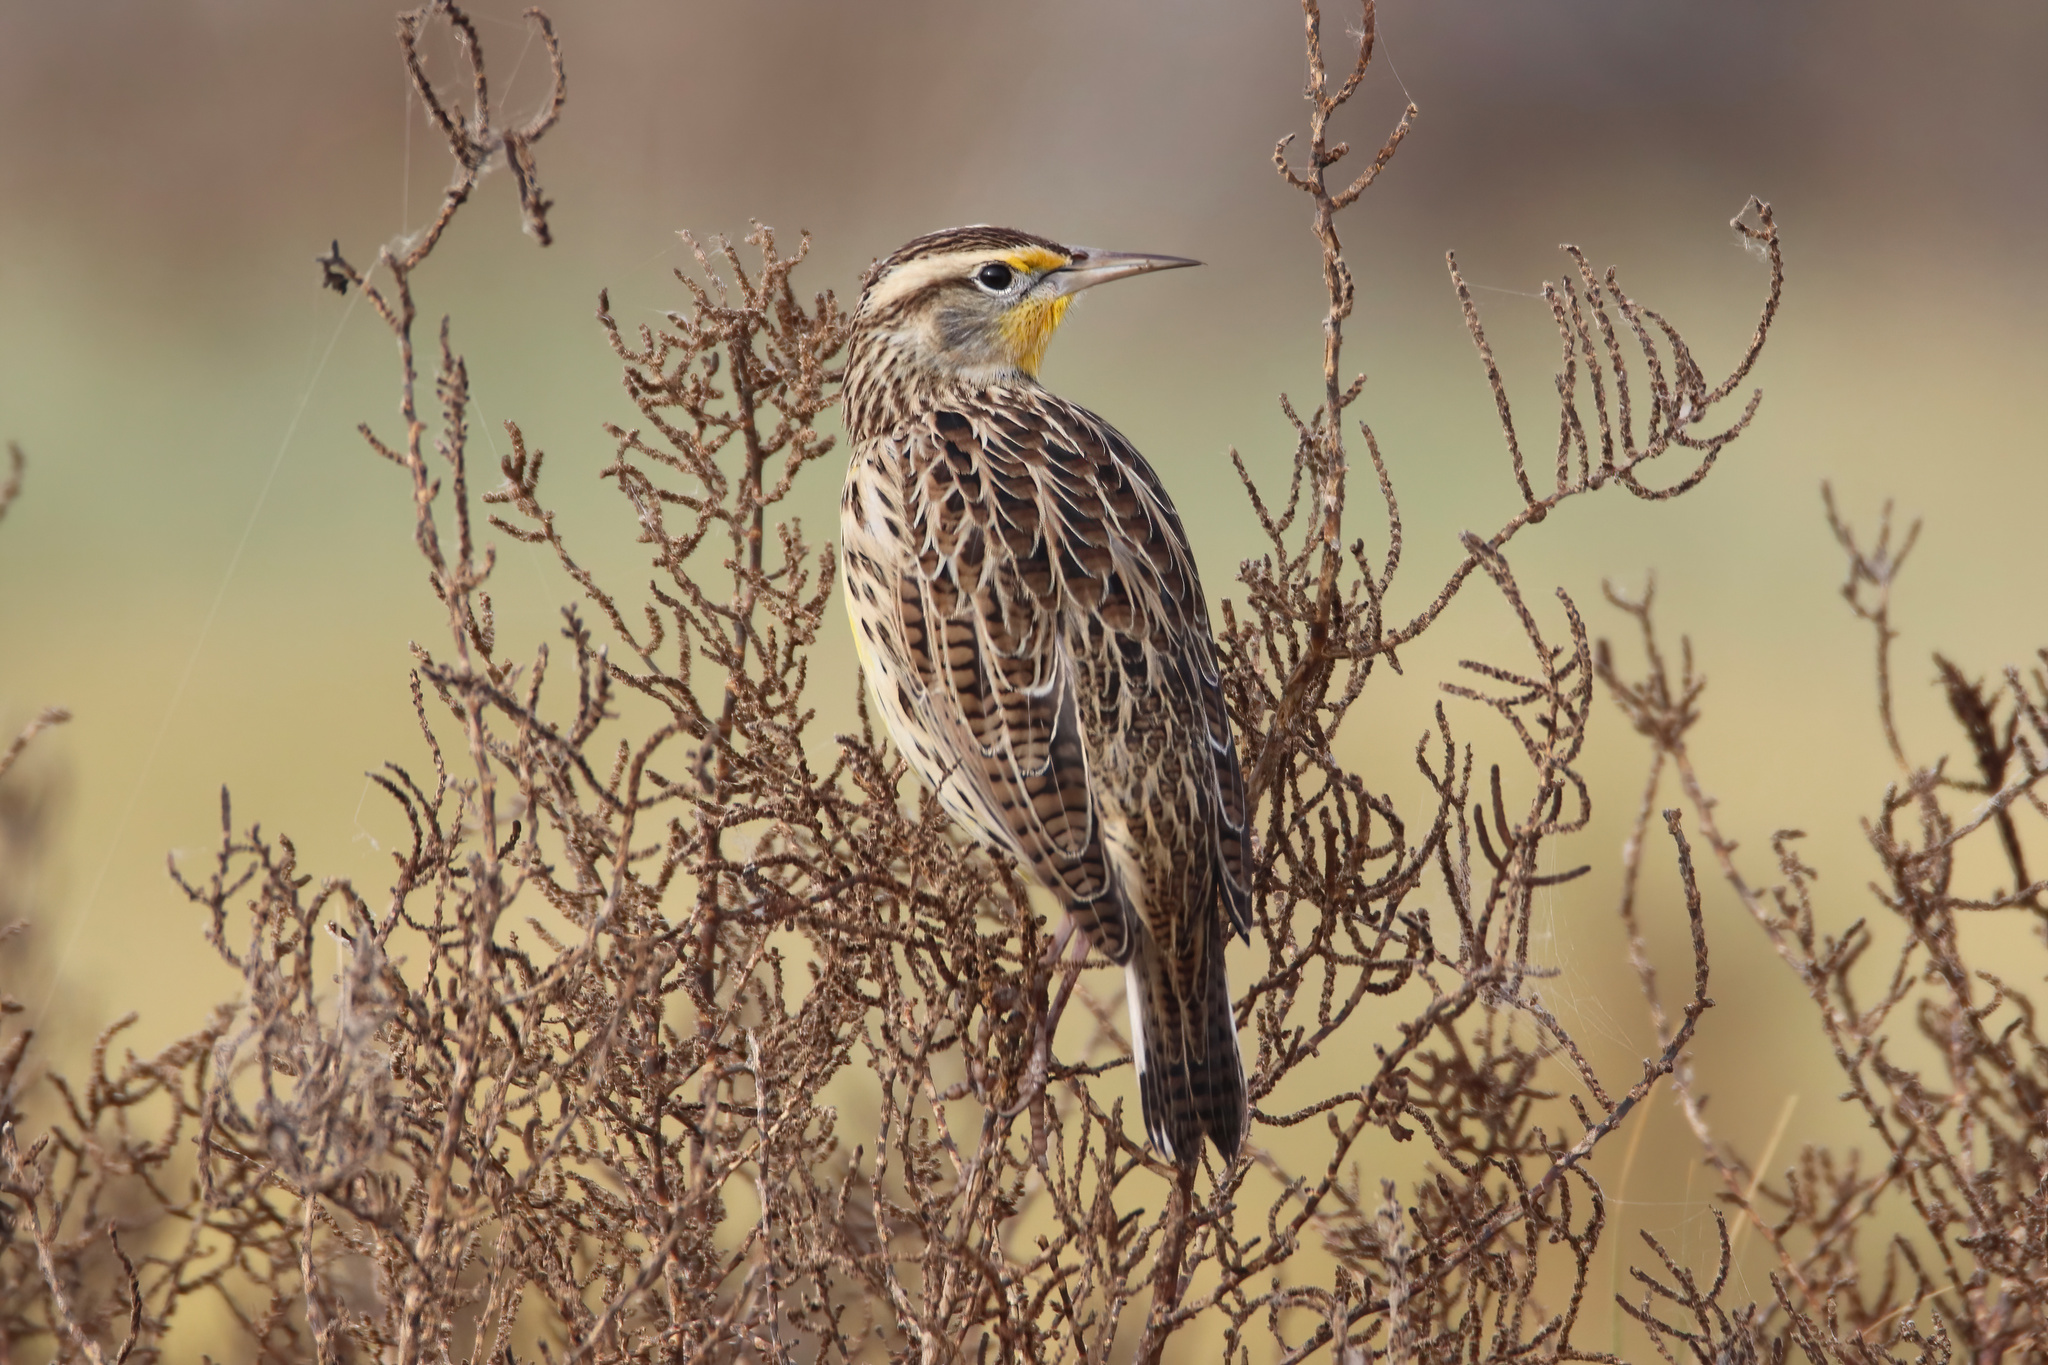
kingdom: Animalia
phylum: Chordata
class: Aves
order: Passeriformes
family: Icteridae
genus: Sturnella
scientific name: Sturnella neglecta
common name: Western meadowlark
